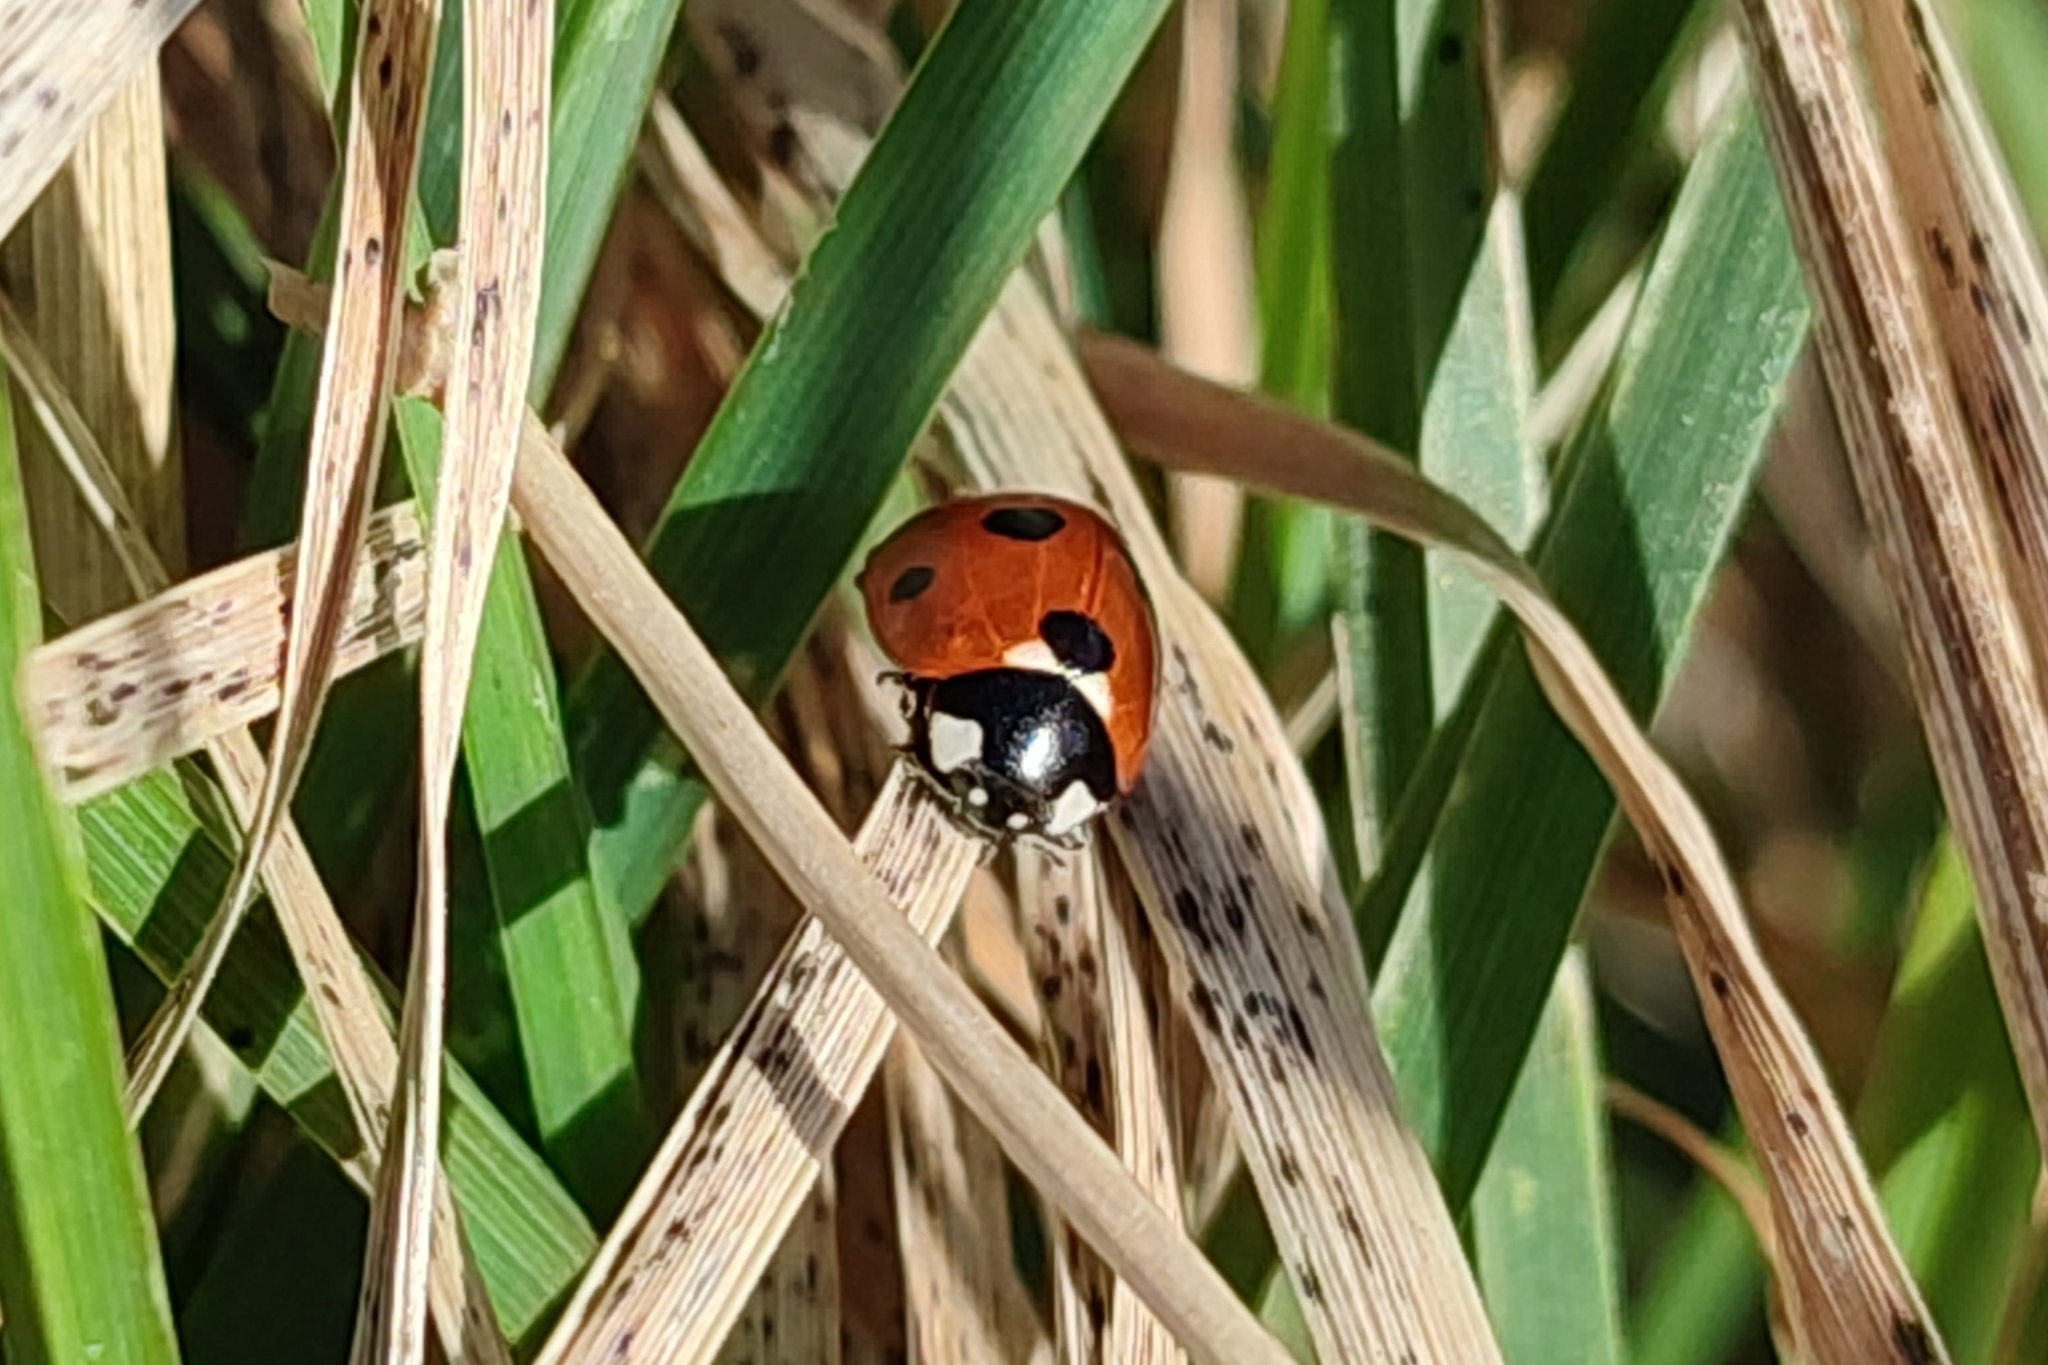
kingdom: Animalia
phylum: Arthropoda
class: Insecta
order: Coleoptera
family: Coccinellidae
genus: Coccinella
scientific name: Coccinella septempunctata
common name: Sevenspotted lady beetle
